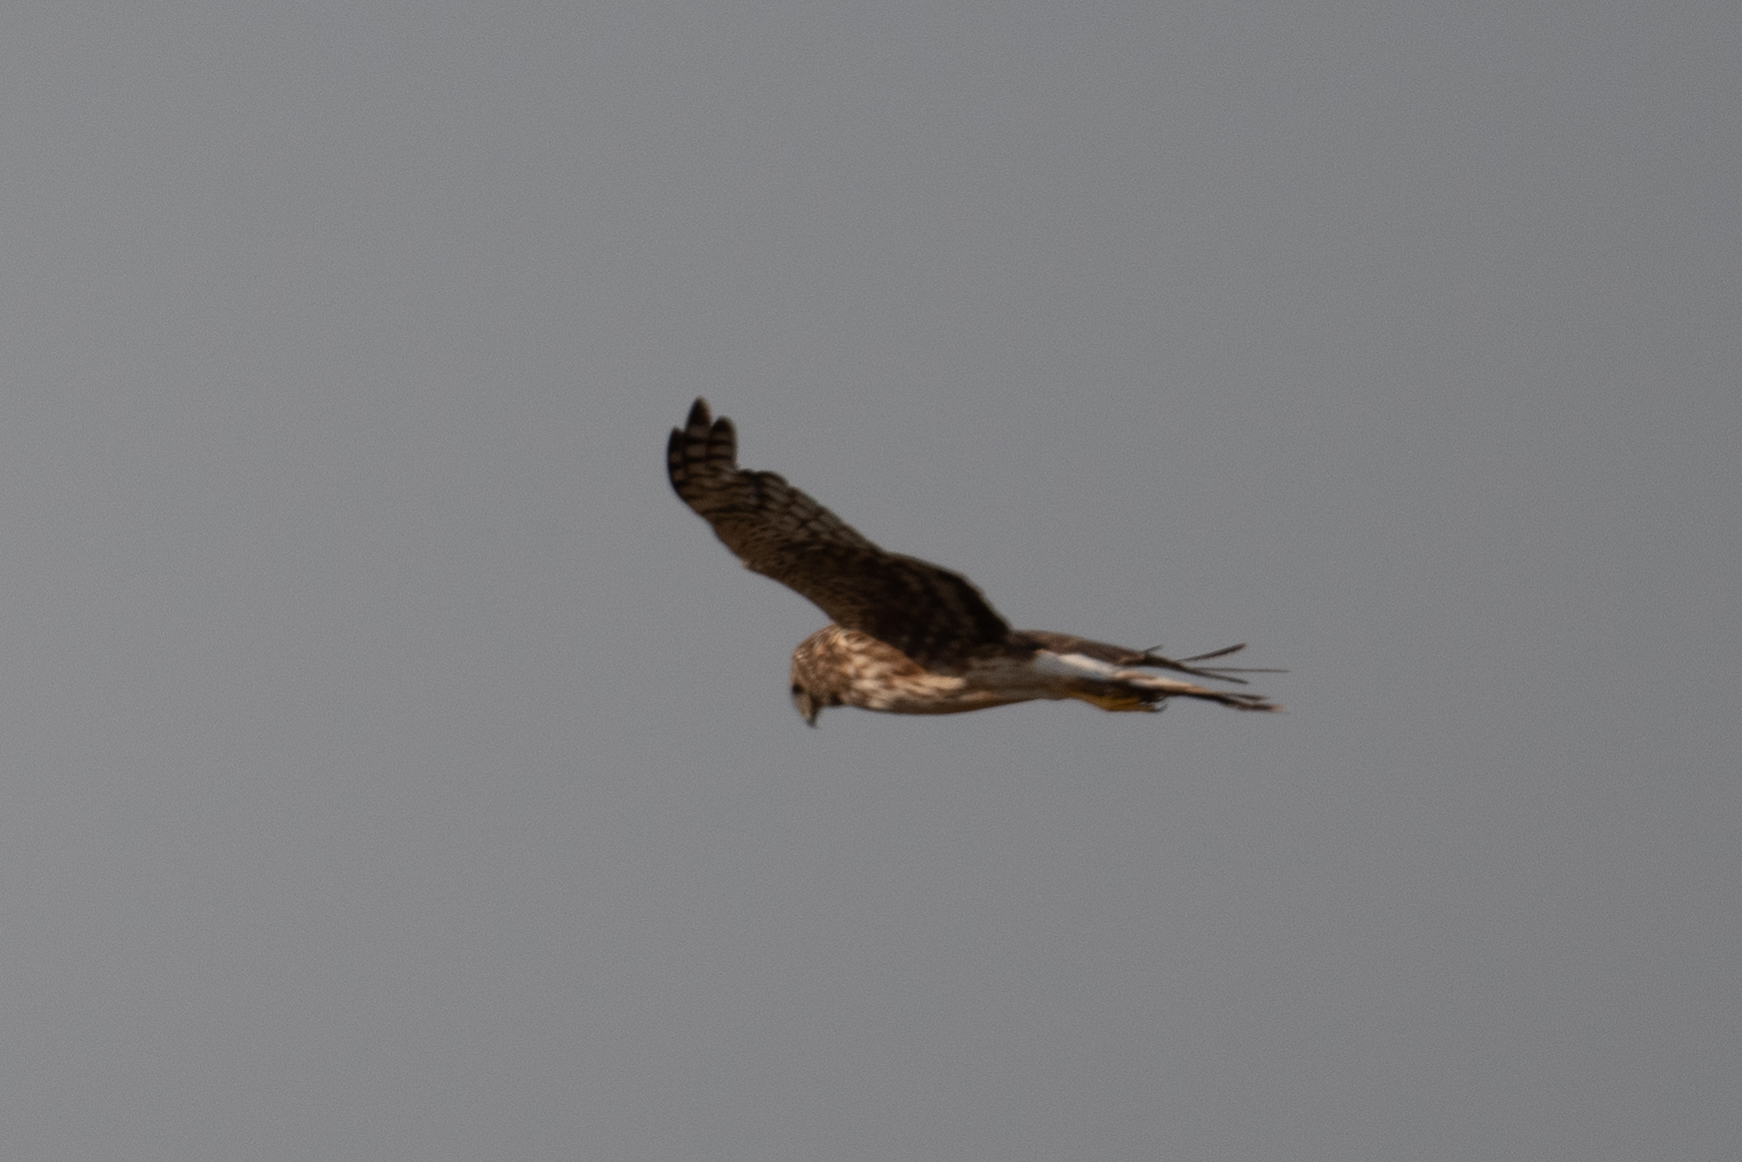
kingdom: Animalia
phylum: Chordata
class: Aves
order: Accipitriformes
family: Accipitridae
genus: Circus
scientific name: Circus cyaneus
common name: Hen harrier
